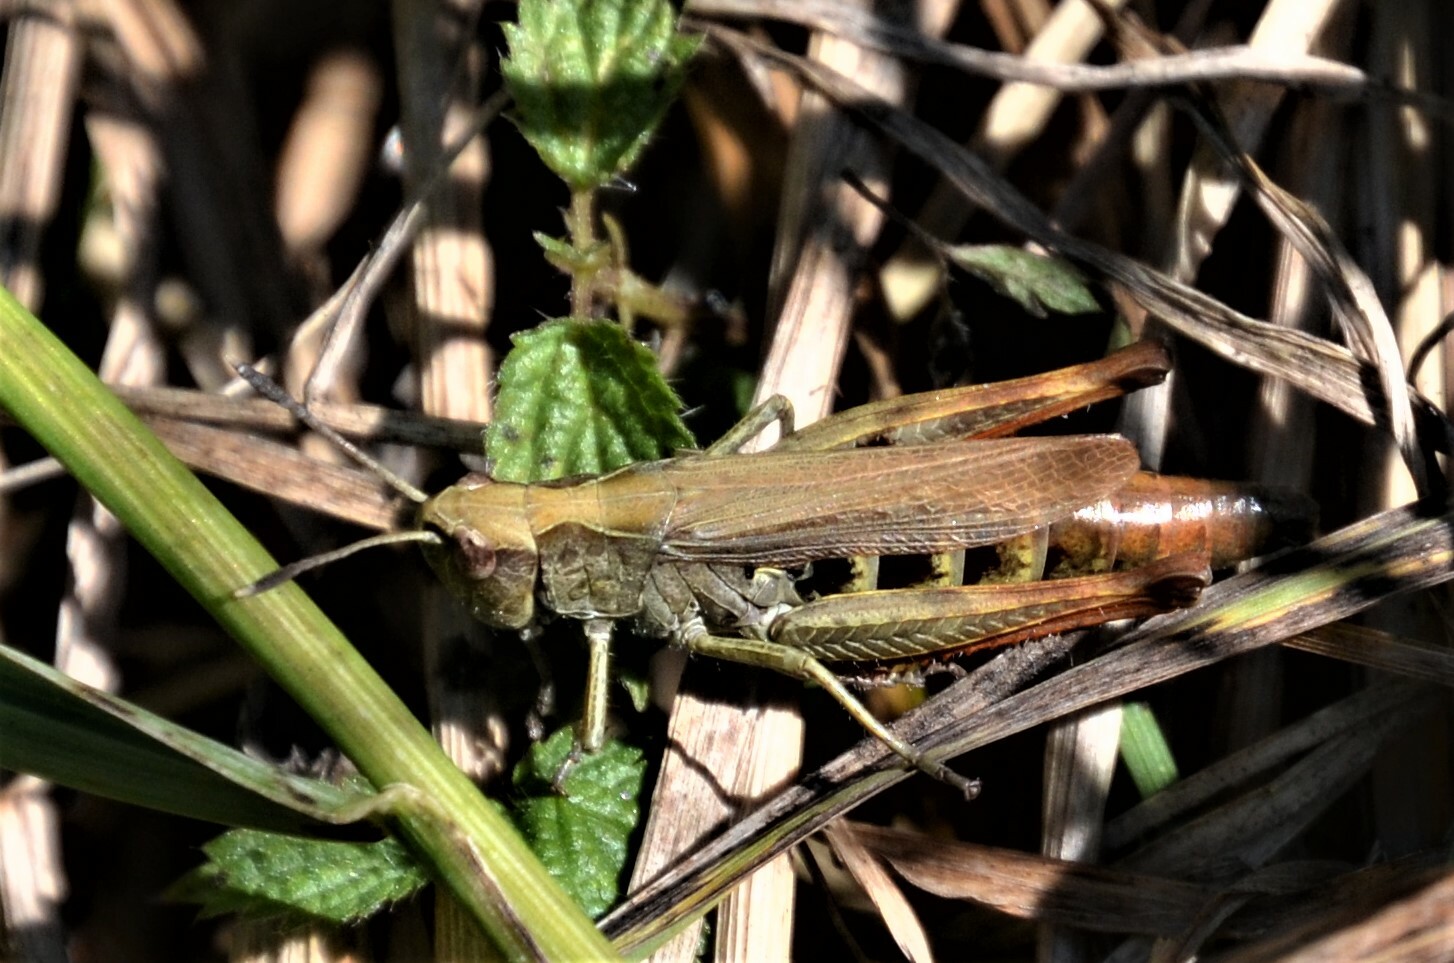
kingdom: Animalia
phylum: Arthropoda
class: Insecta
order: Orthoptera
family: Acrididae
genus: Gomphocerippus
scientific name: Gomphocerippus rufus
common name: Rufous grasshopper
